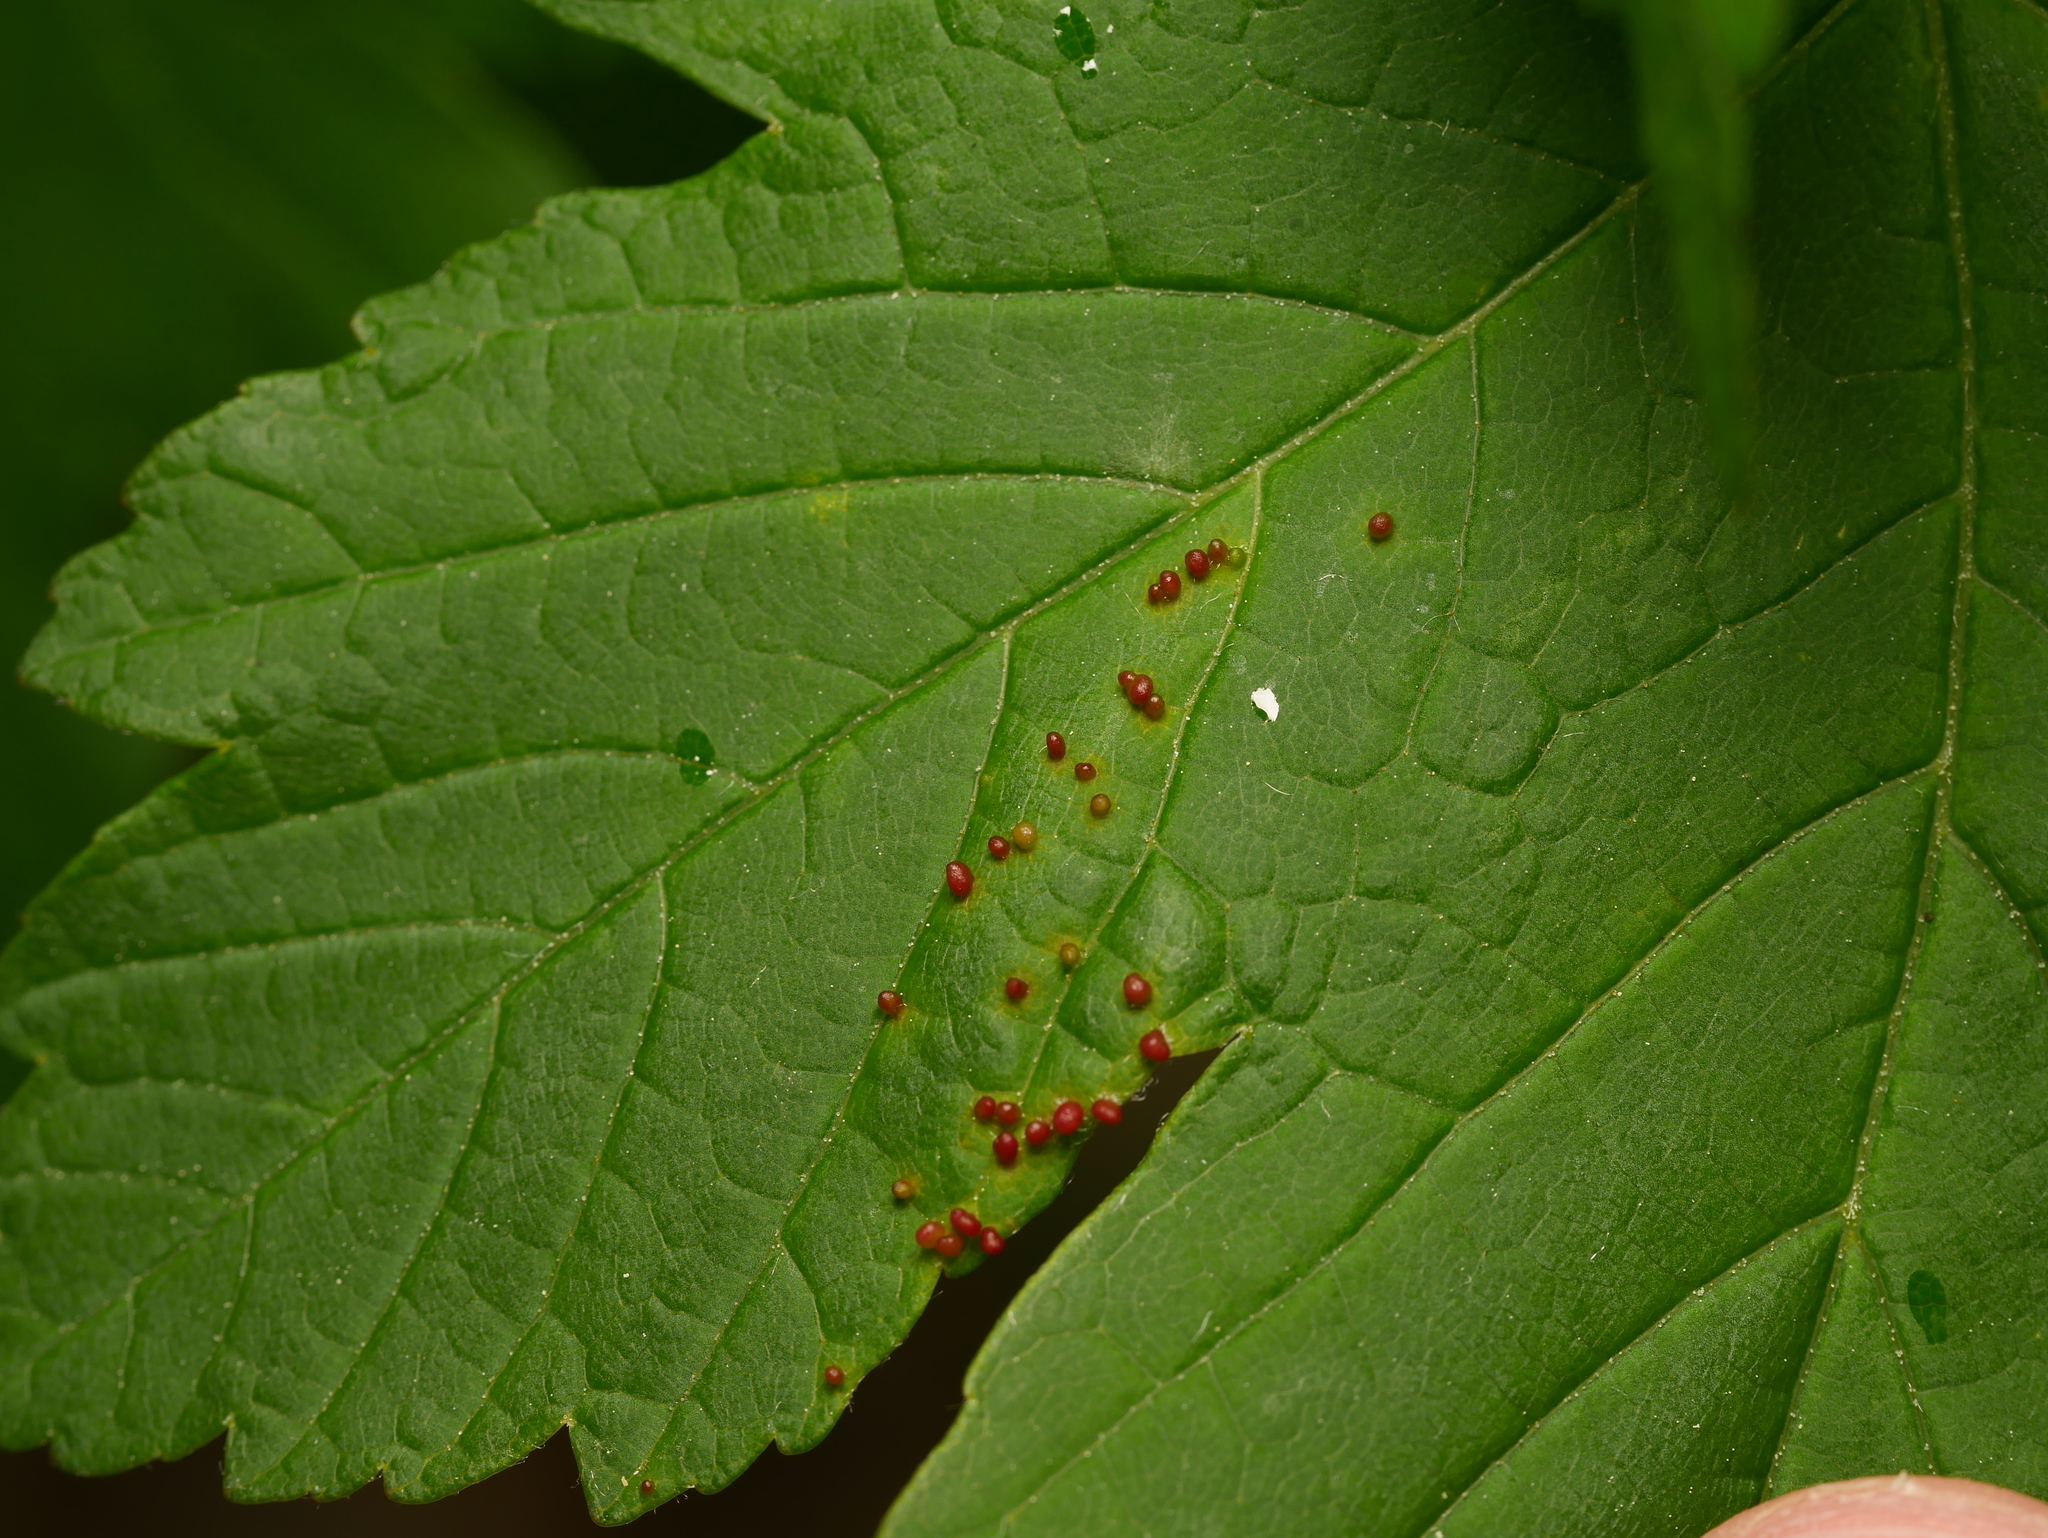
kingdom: Animalia
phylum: Arthropoda
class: Arachnida
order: Trombidiformes
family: Eriophyidae
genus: Aceria
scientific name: Aceria cephaloneus
